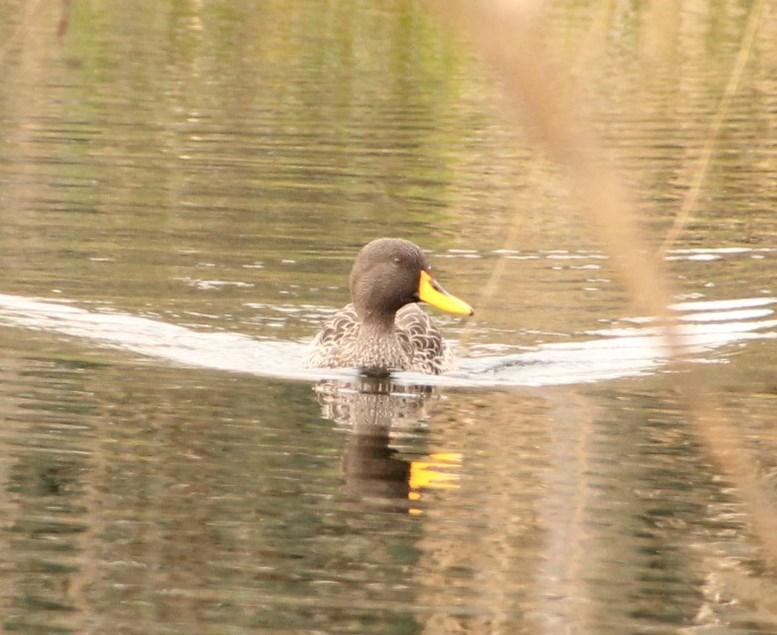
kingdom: Animalia
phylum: Chordata
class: Aves
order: Anseriformes
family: Anatidae
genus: Anas
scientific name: Anas undulata
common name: Yellow-billed duck
